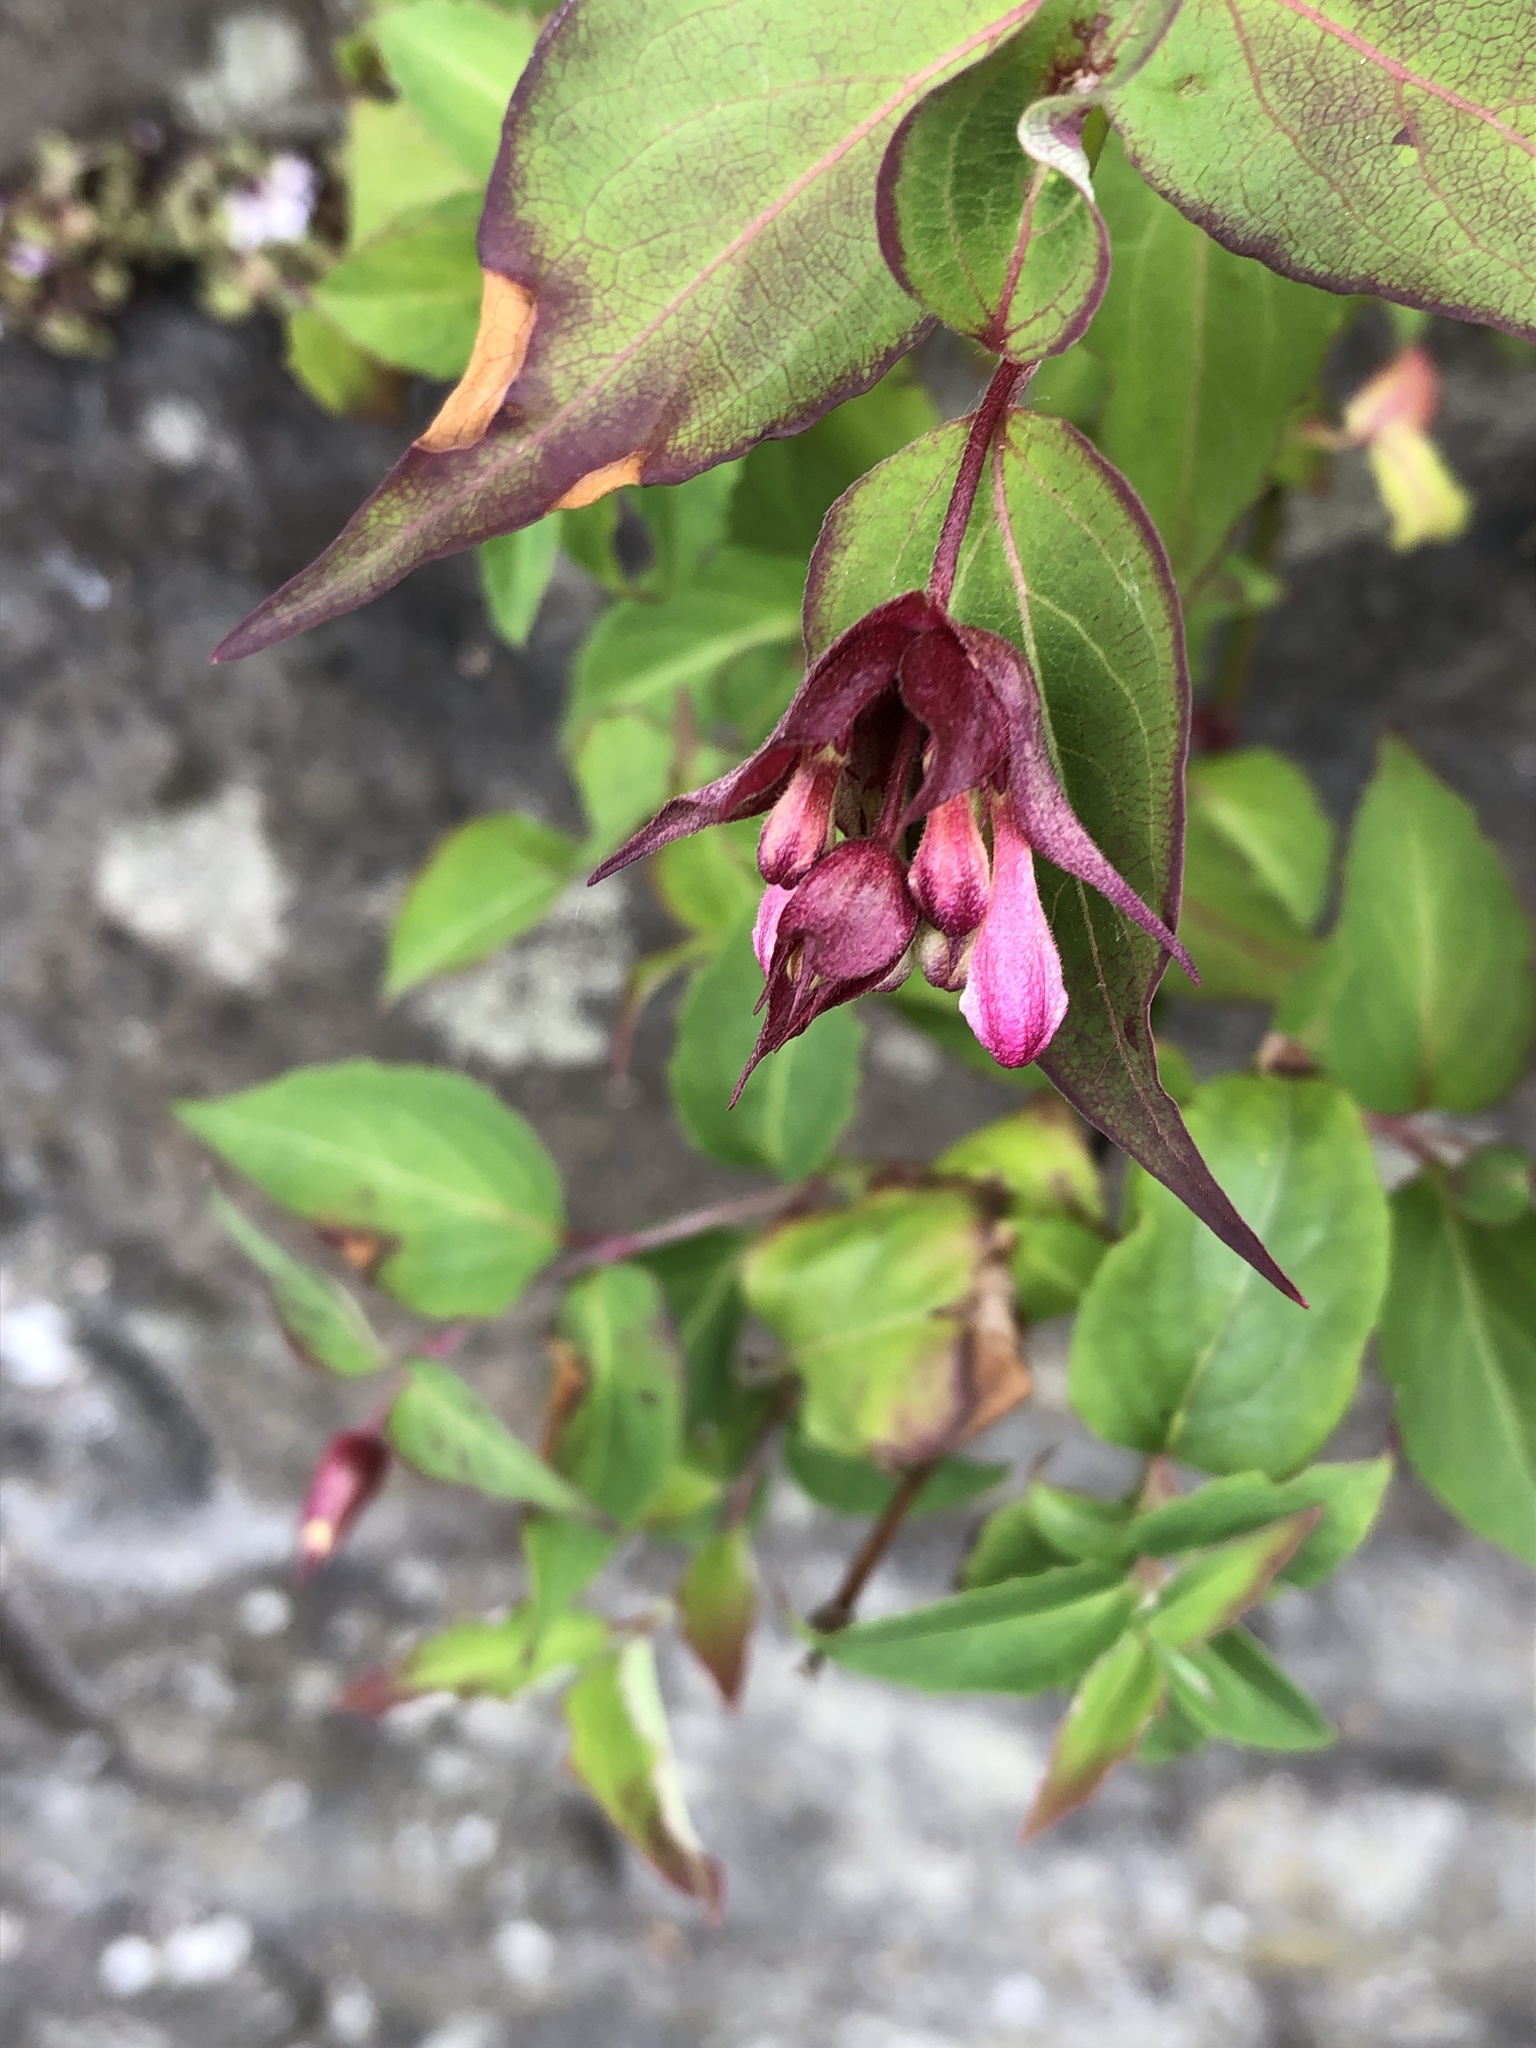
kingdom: Plantae
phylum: Tracheophyta
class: Magnoliopsida
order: Dipsacales
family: Caprifoliaceae
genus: Leycesteria
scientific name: Leycesteria formosa
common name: Himalayan honeysuckle
